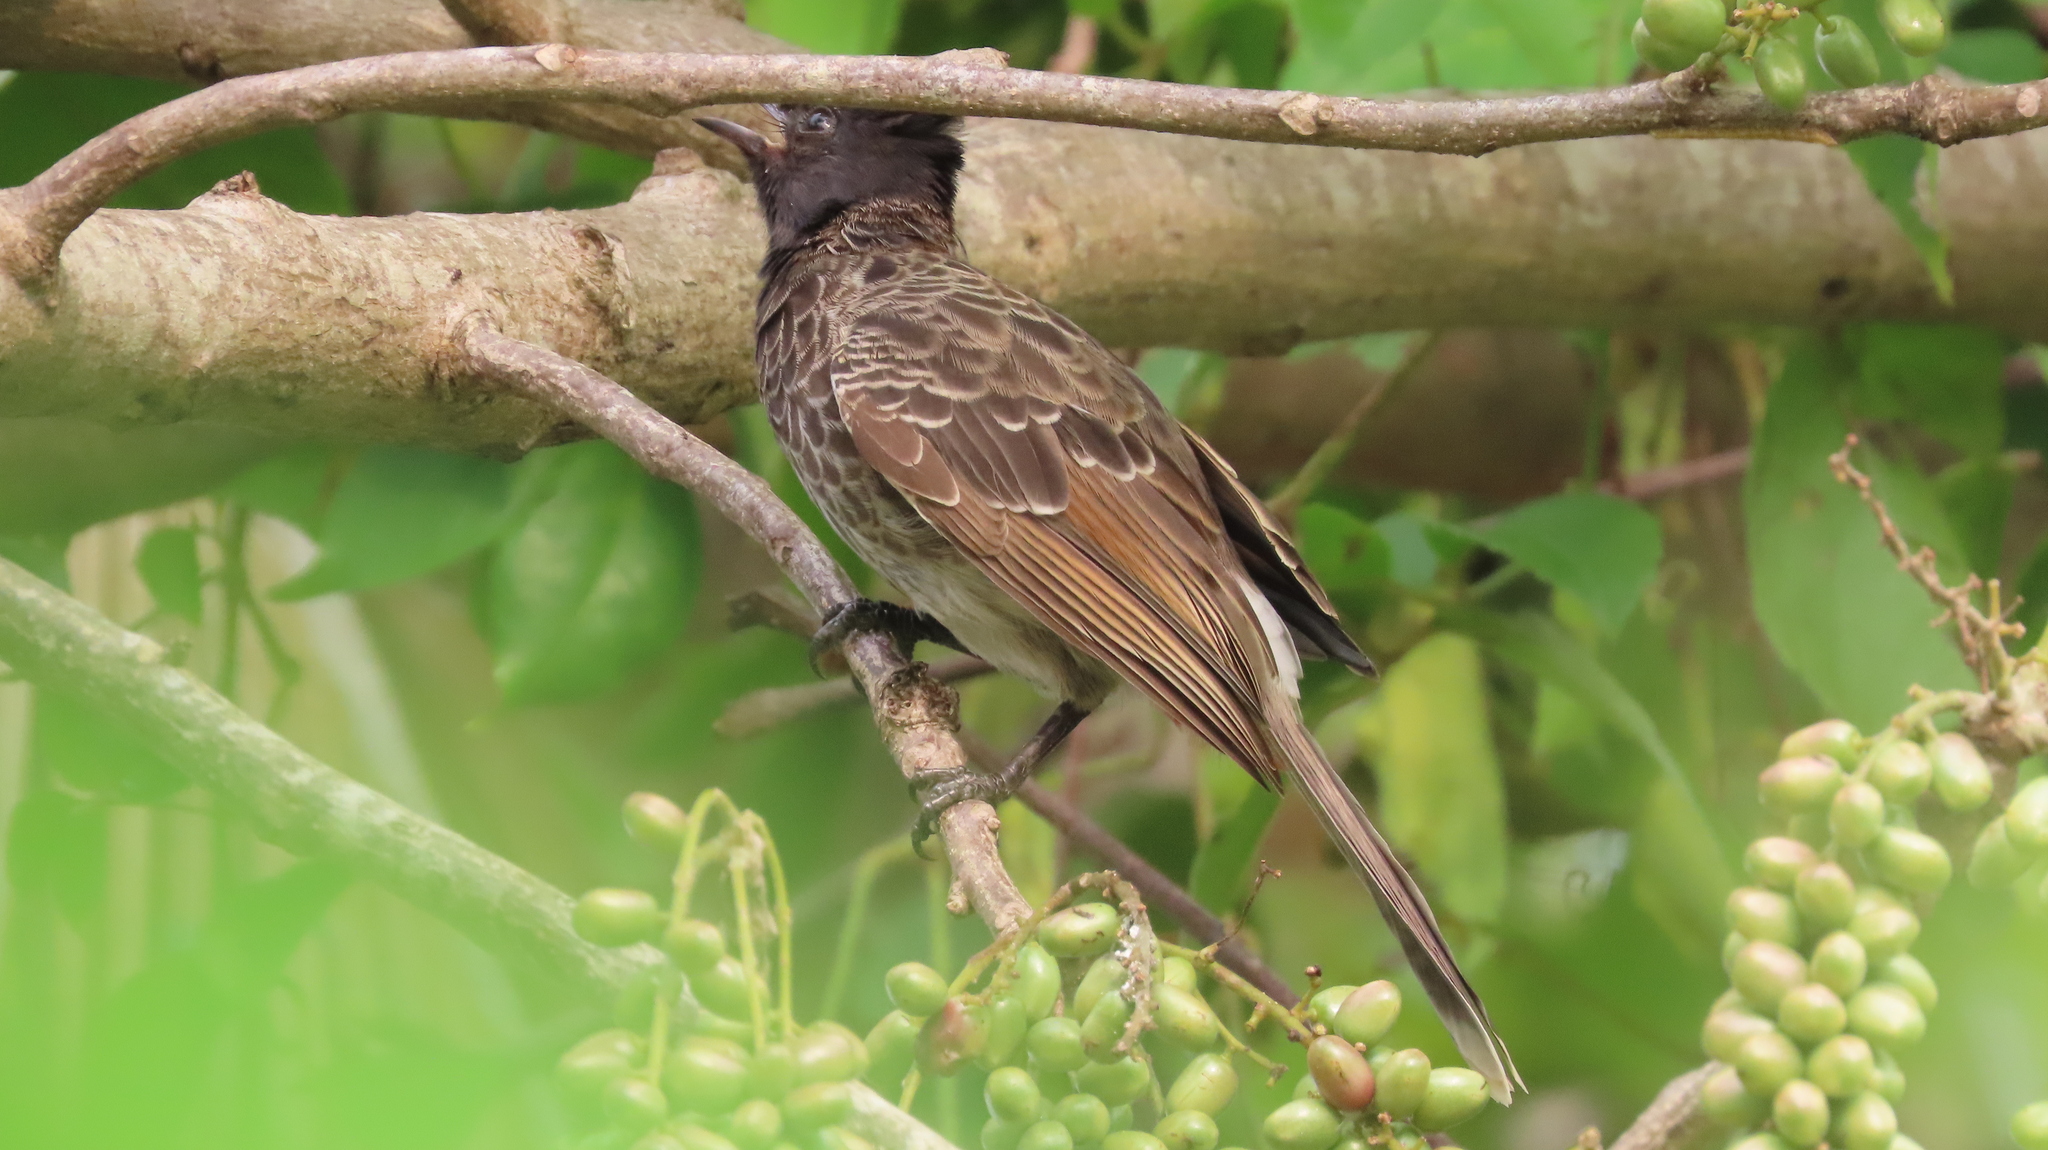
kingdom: Animalia
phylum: Chordata
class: Aves
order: Passeriformes
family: Pycnonotidae
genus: Pycnonotus
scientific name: Pycnonotus cafer
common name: Red-vented bulbul
